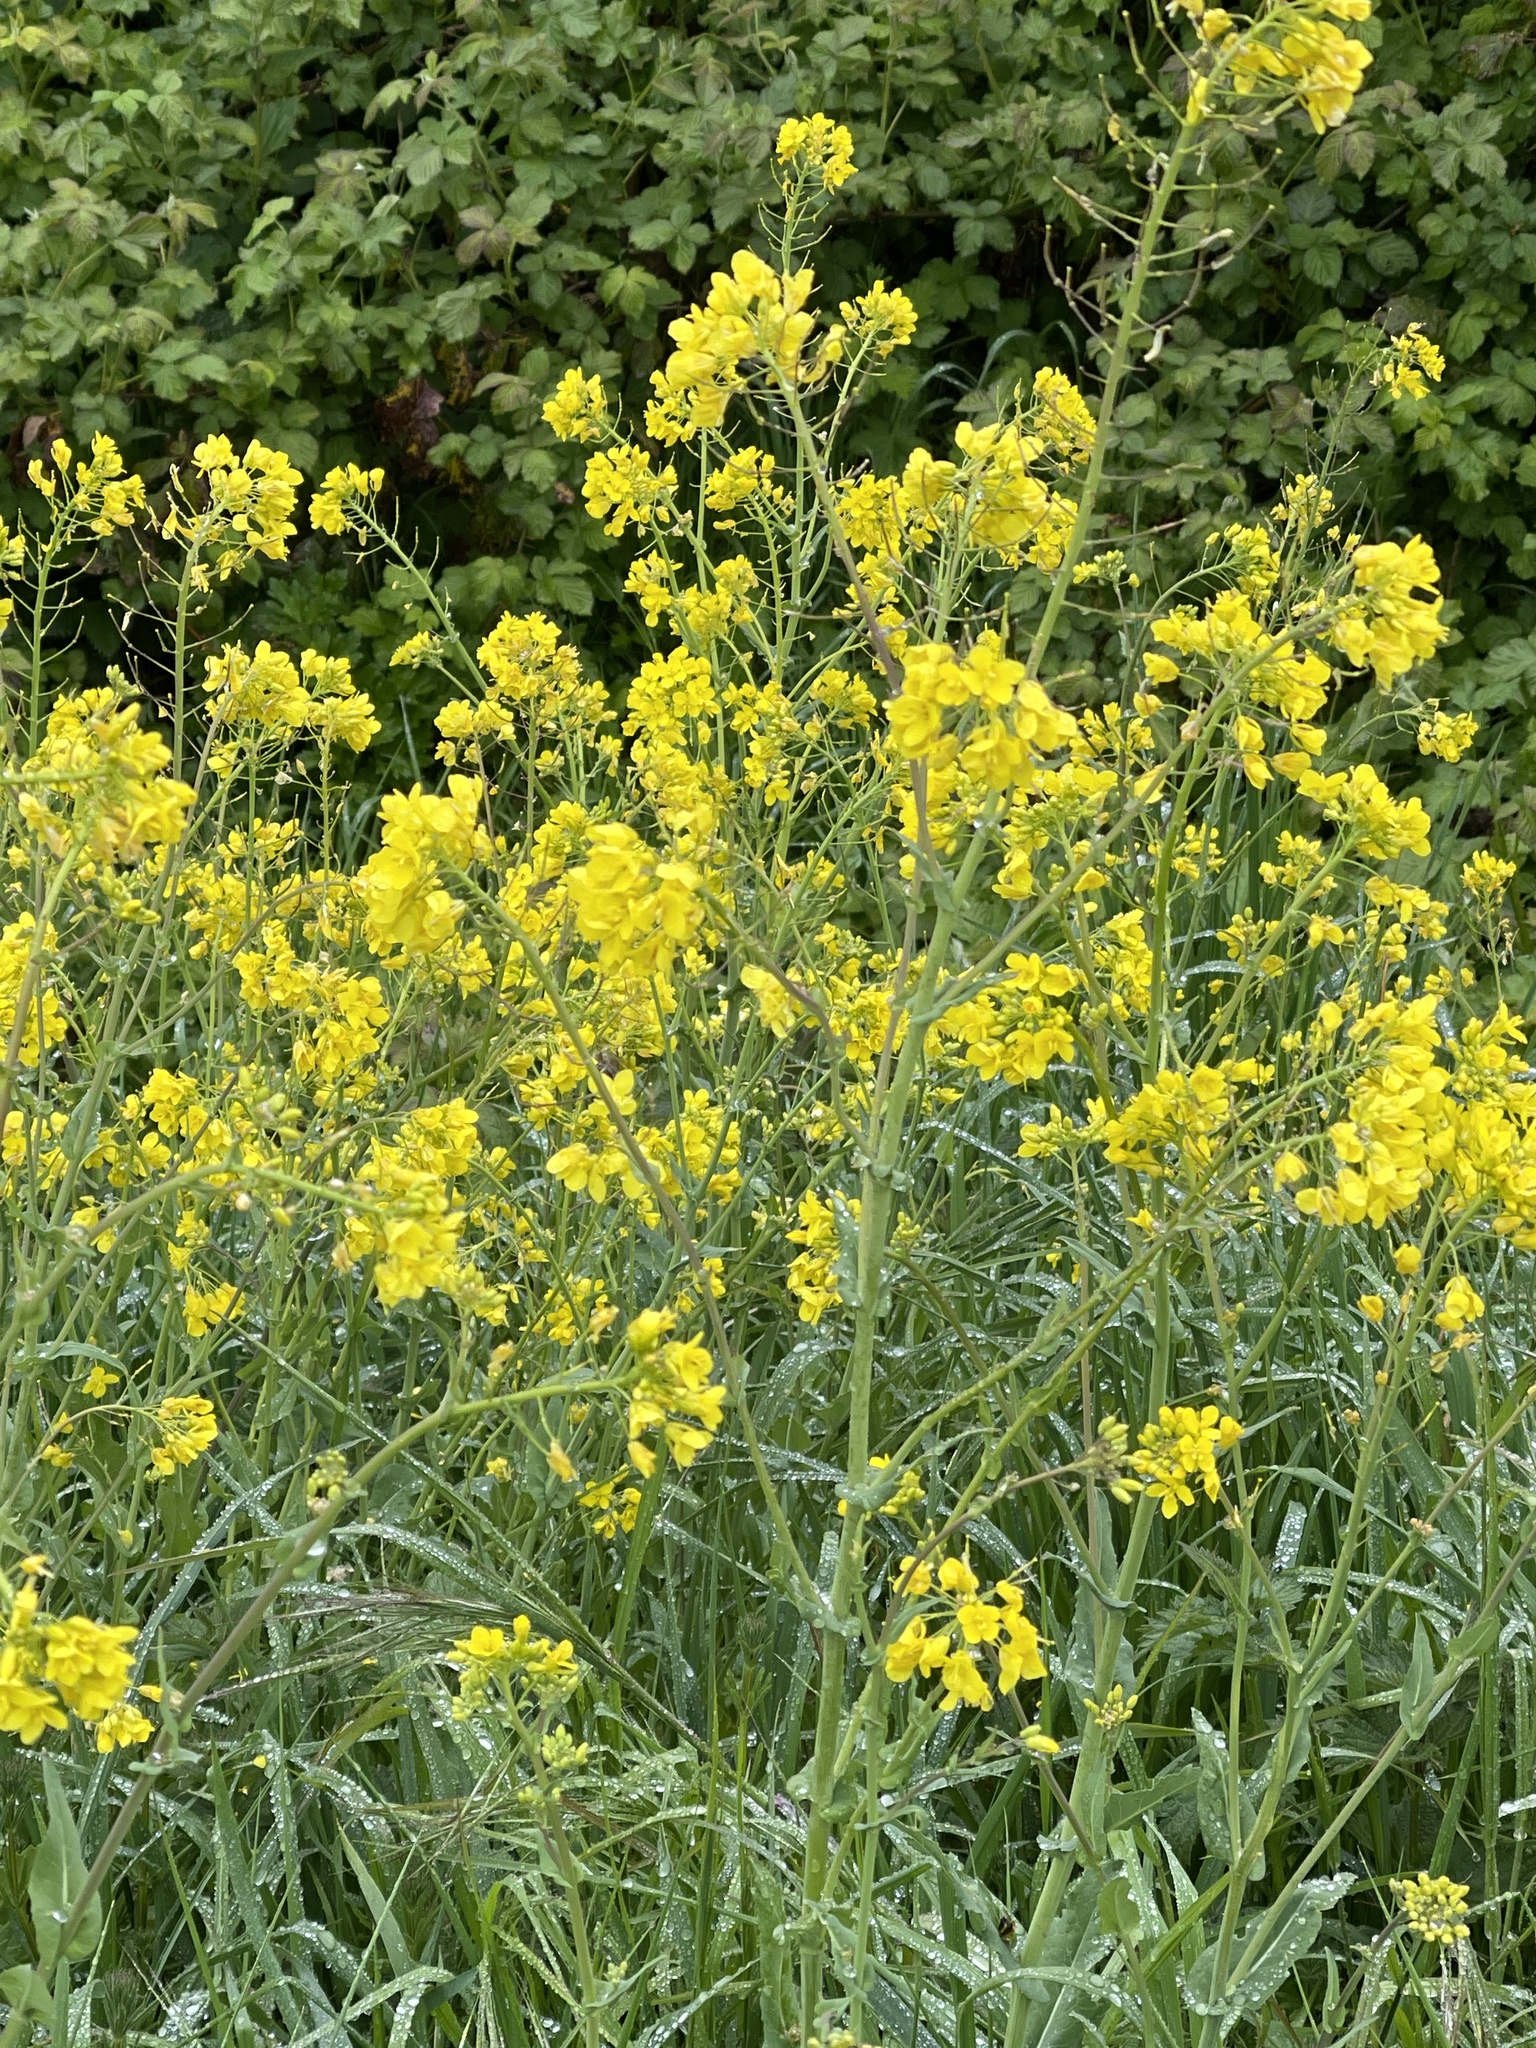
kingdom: Plantae
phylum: Tracheophyta
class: Magnoliopsida
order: Brassicales
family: Brassicaceae
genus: Brassica
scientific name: Brassica rapa
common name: Field mustard
